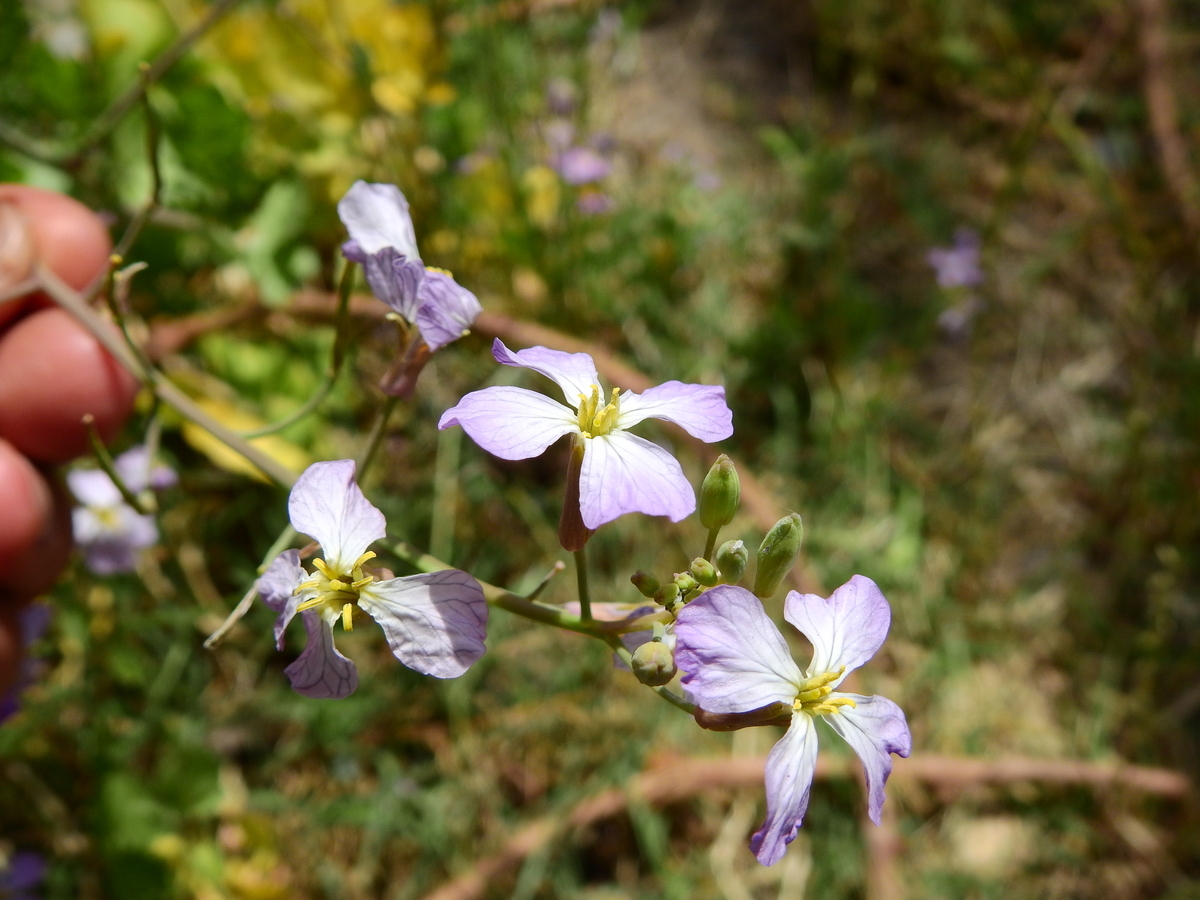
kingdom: Plantae
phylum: Tracheophyta
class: Magnoliopsida
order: Brassicales
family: Brassicaceae
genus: Raphanus
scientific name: Raphanus sativus
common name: Cultivated radish
